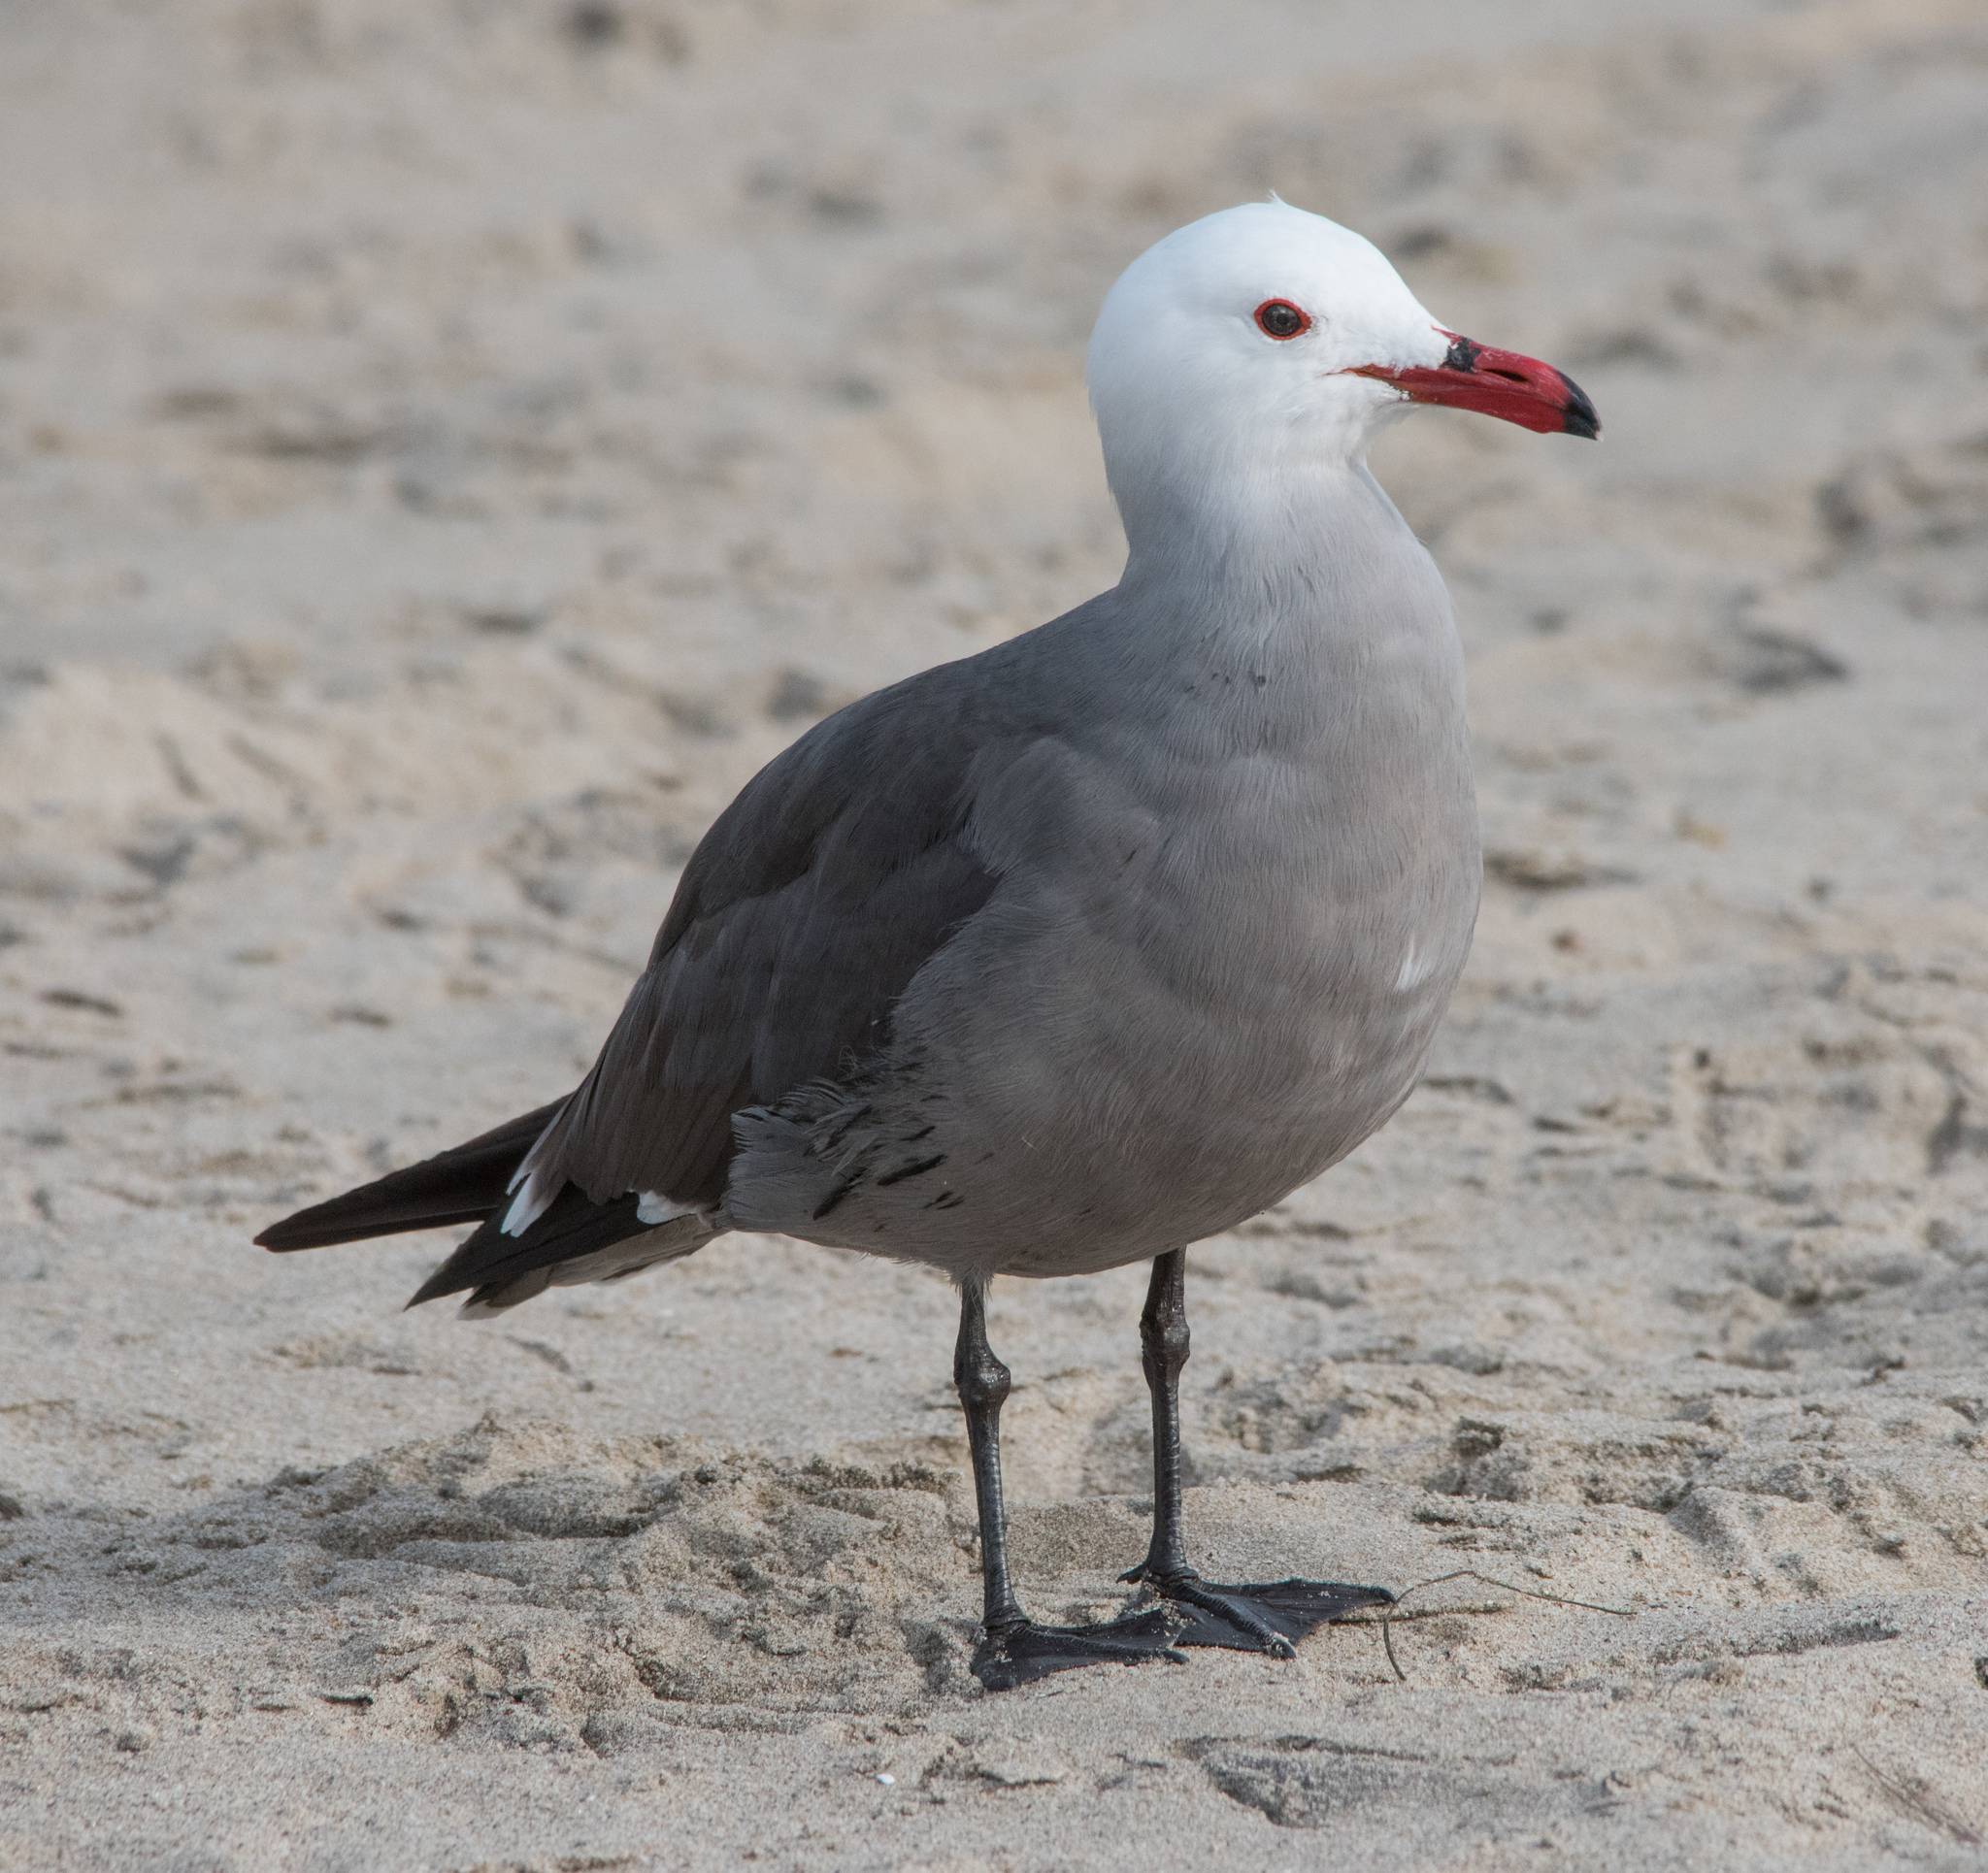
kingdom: Animalia
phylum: Chordata
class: Aves
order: Charadriiformes
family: Laridae
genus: Larus
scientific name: Larus heermanni
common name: Heermann's gull
